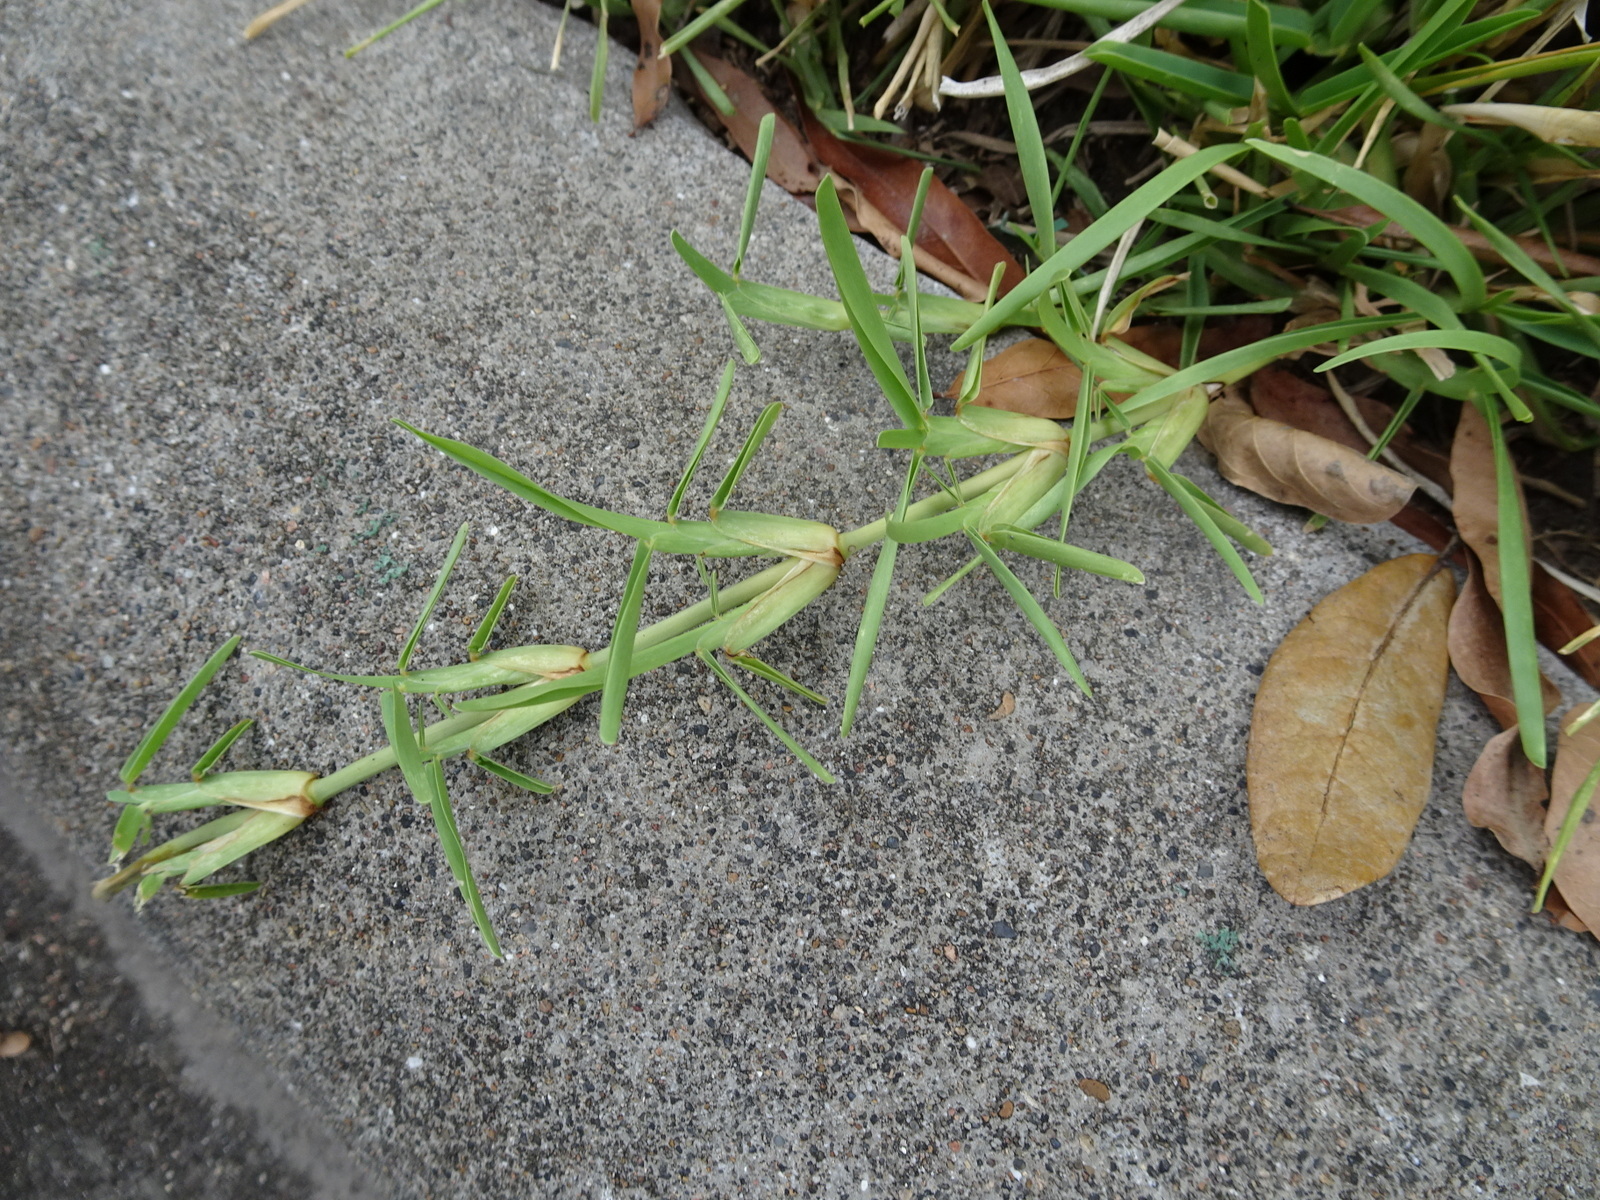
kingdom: Plantae
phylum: Tracheophyta
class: Liliopsida
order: Poales
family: Poaceae
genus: Stenotaphrum
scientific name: Stenotaphrum secundatum
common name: St. augustine grass
